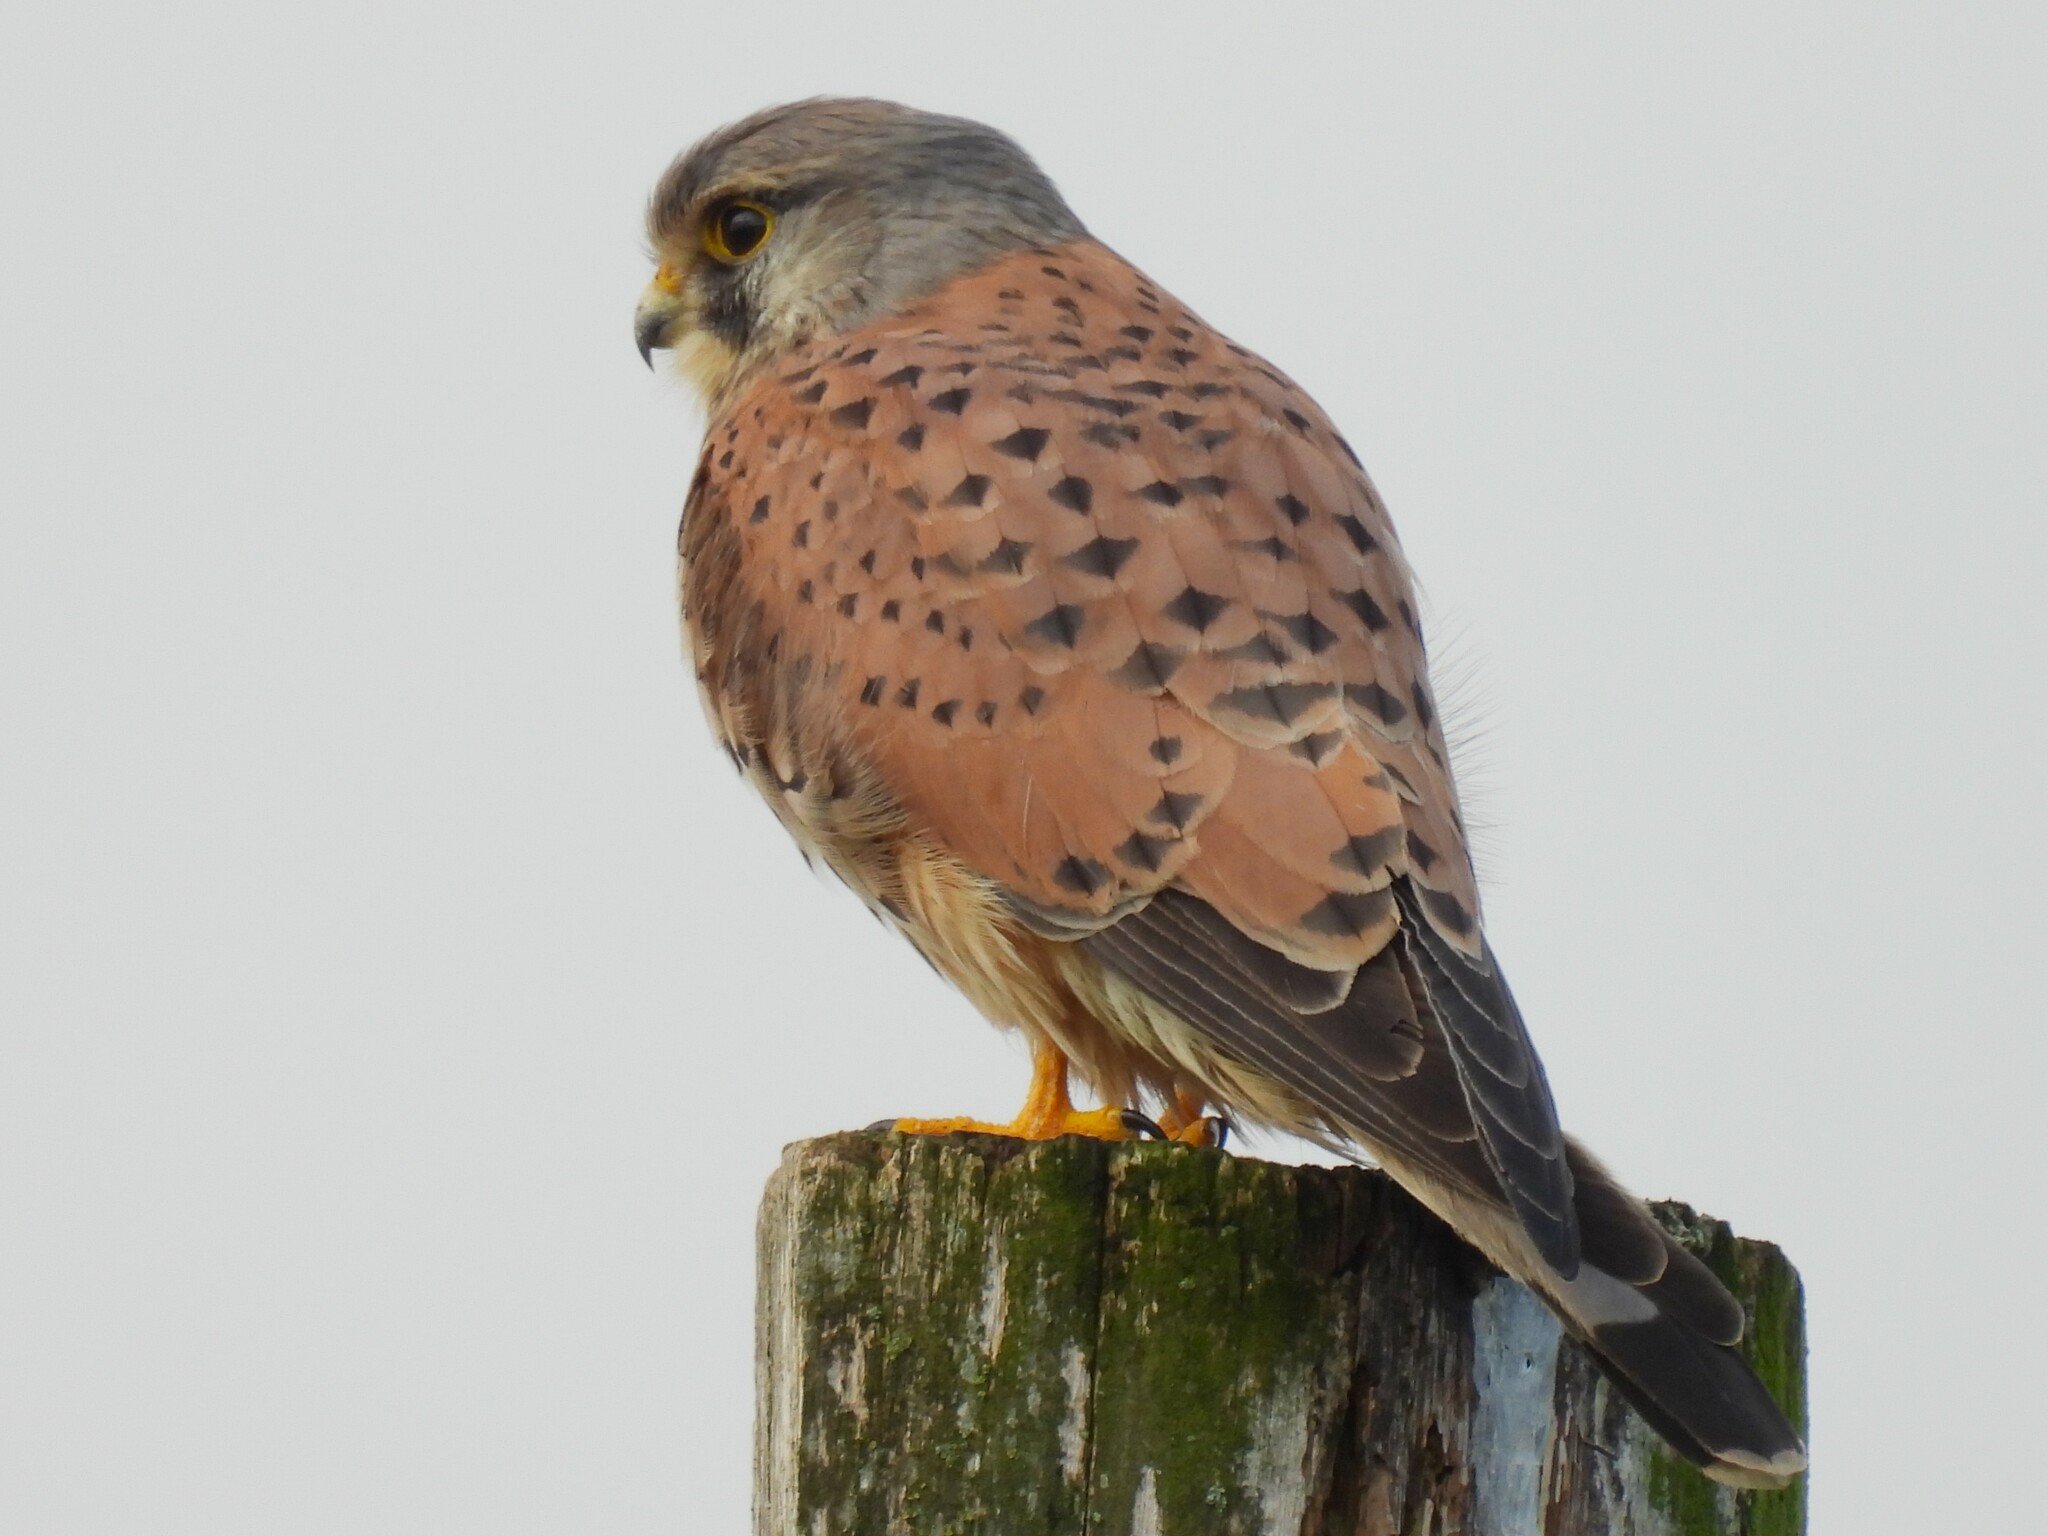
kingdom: Animalia
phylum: Chordata
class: Aves
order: Falconiformes
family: Falconidae
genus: Falco
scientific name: Falco tinnunculus
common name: Common kestrel
